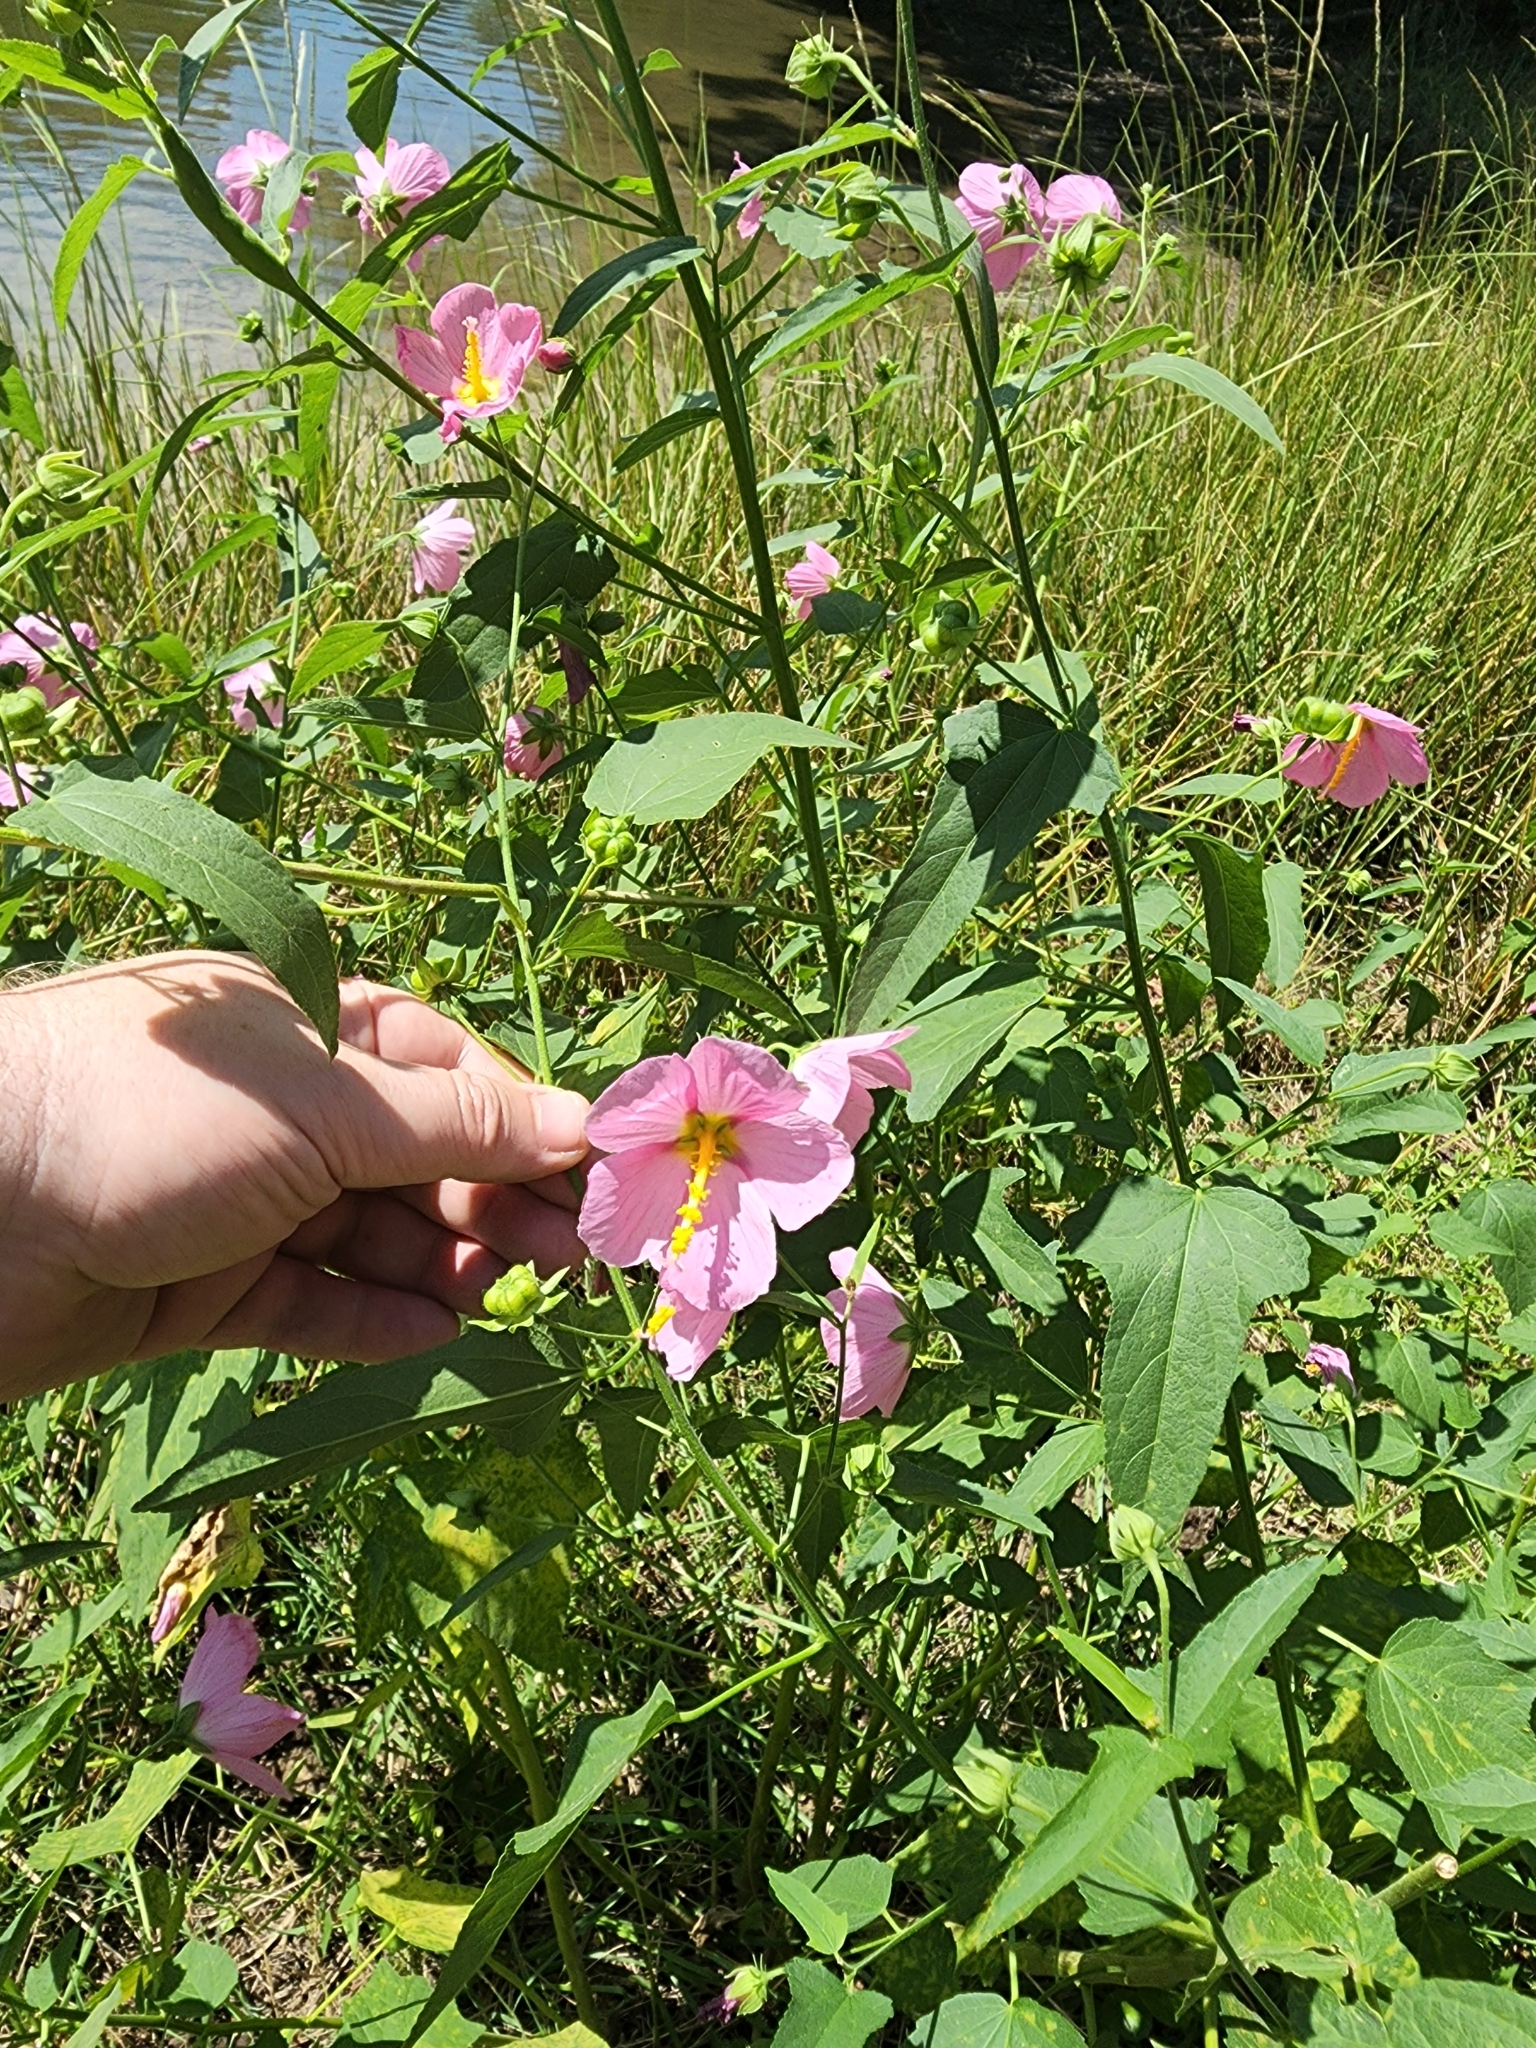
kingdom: Plantae
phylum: Tracheophyta
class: Magnoliopsida
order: Malvales
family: Malvaceae
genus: Kosteletzkya
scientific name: Kosteletzkya pentacarpos
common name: Virginia saltmarsh mallow
